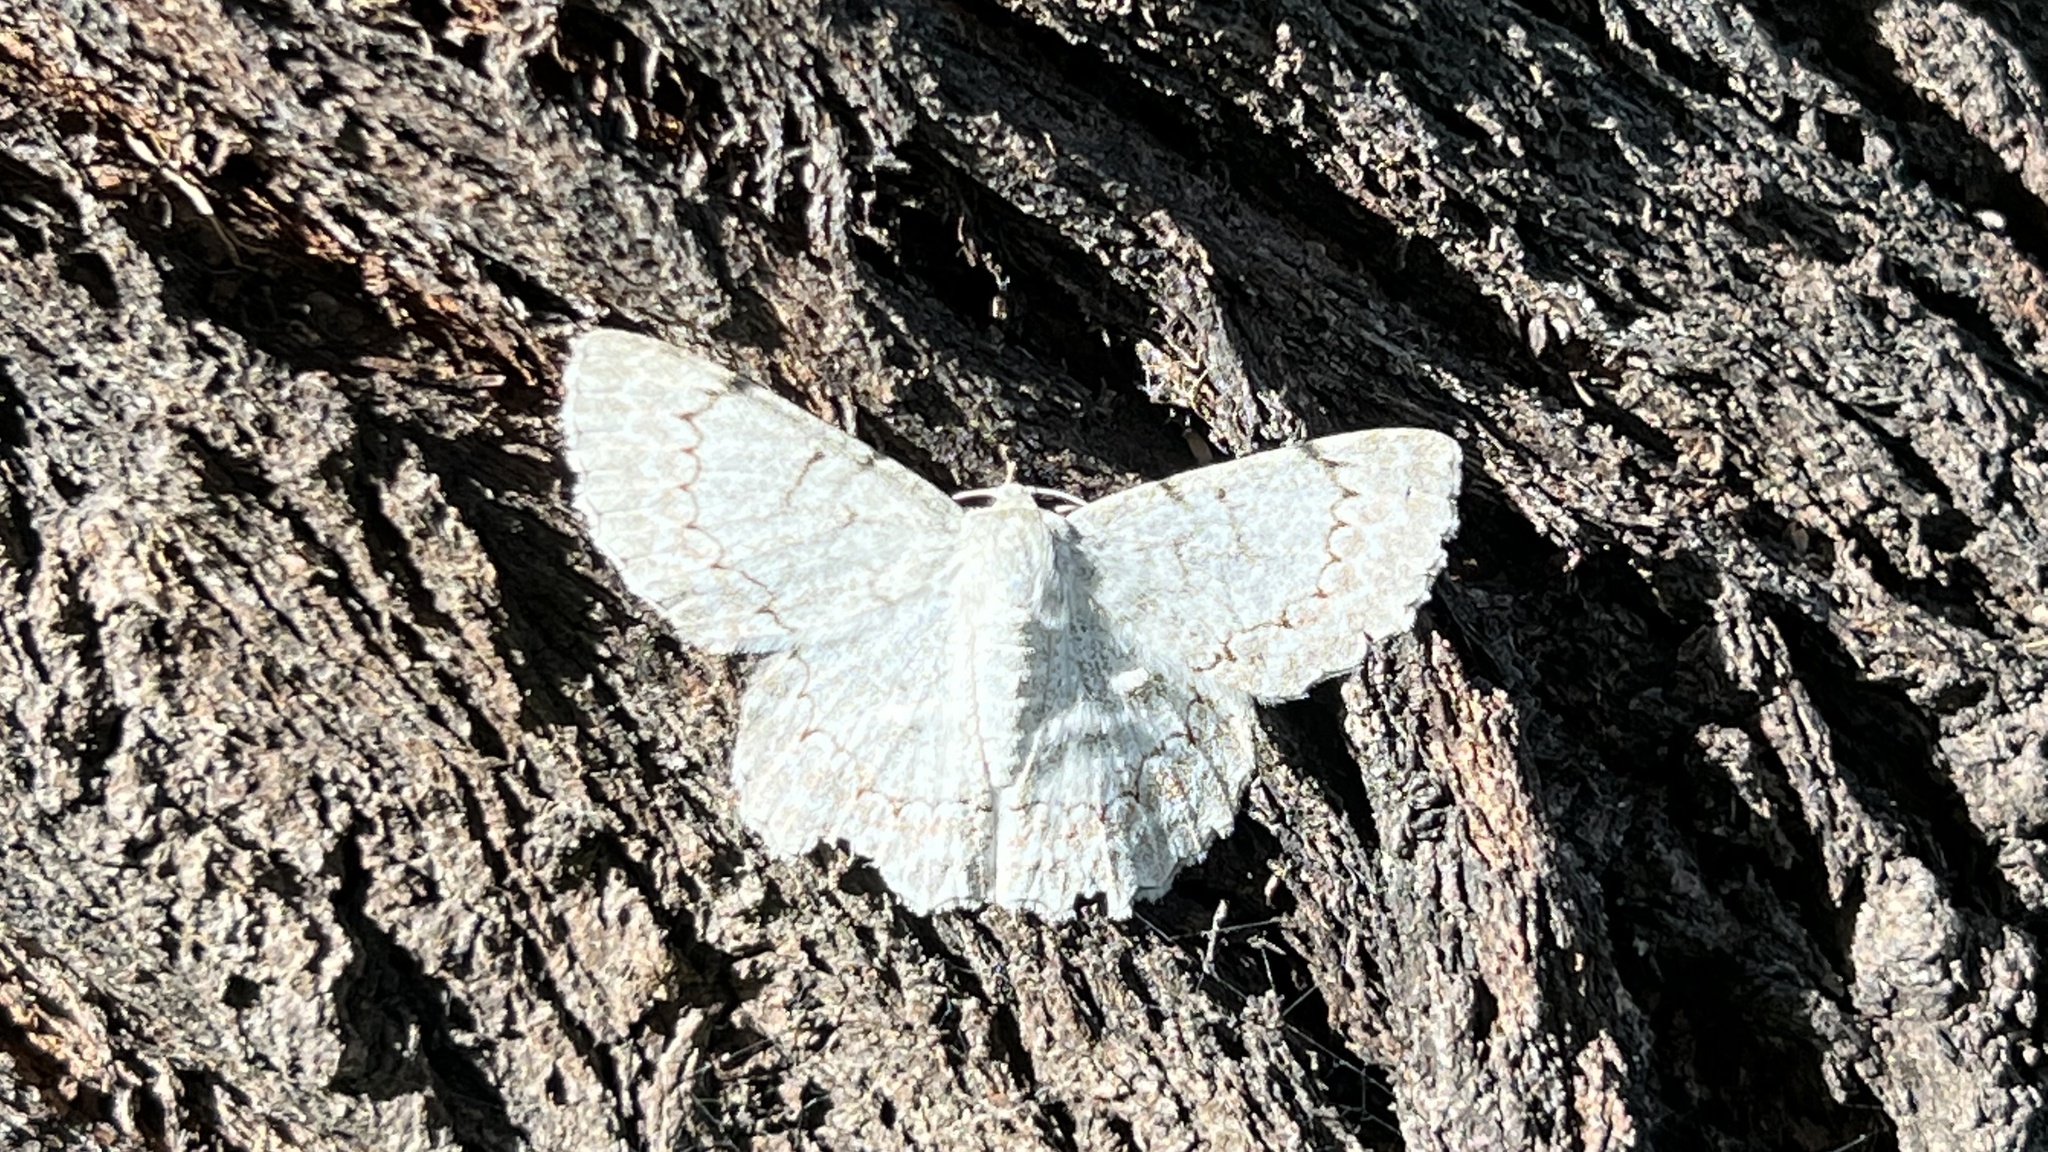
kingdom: Animalia
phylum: Arthropoda
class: Insecta
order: Lepidoptera
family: Geometridae
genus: Pingasa
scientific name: Pingasa chlora
